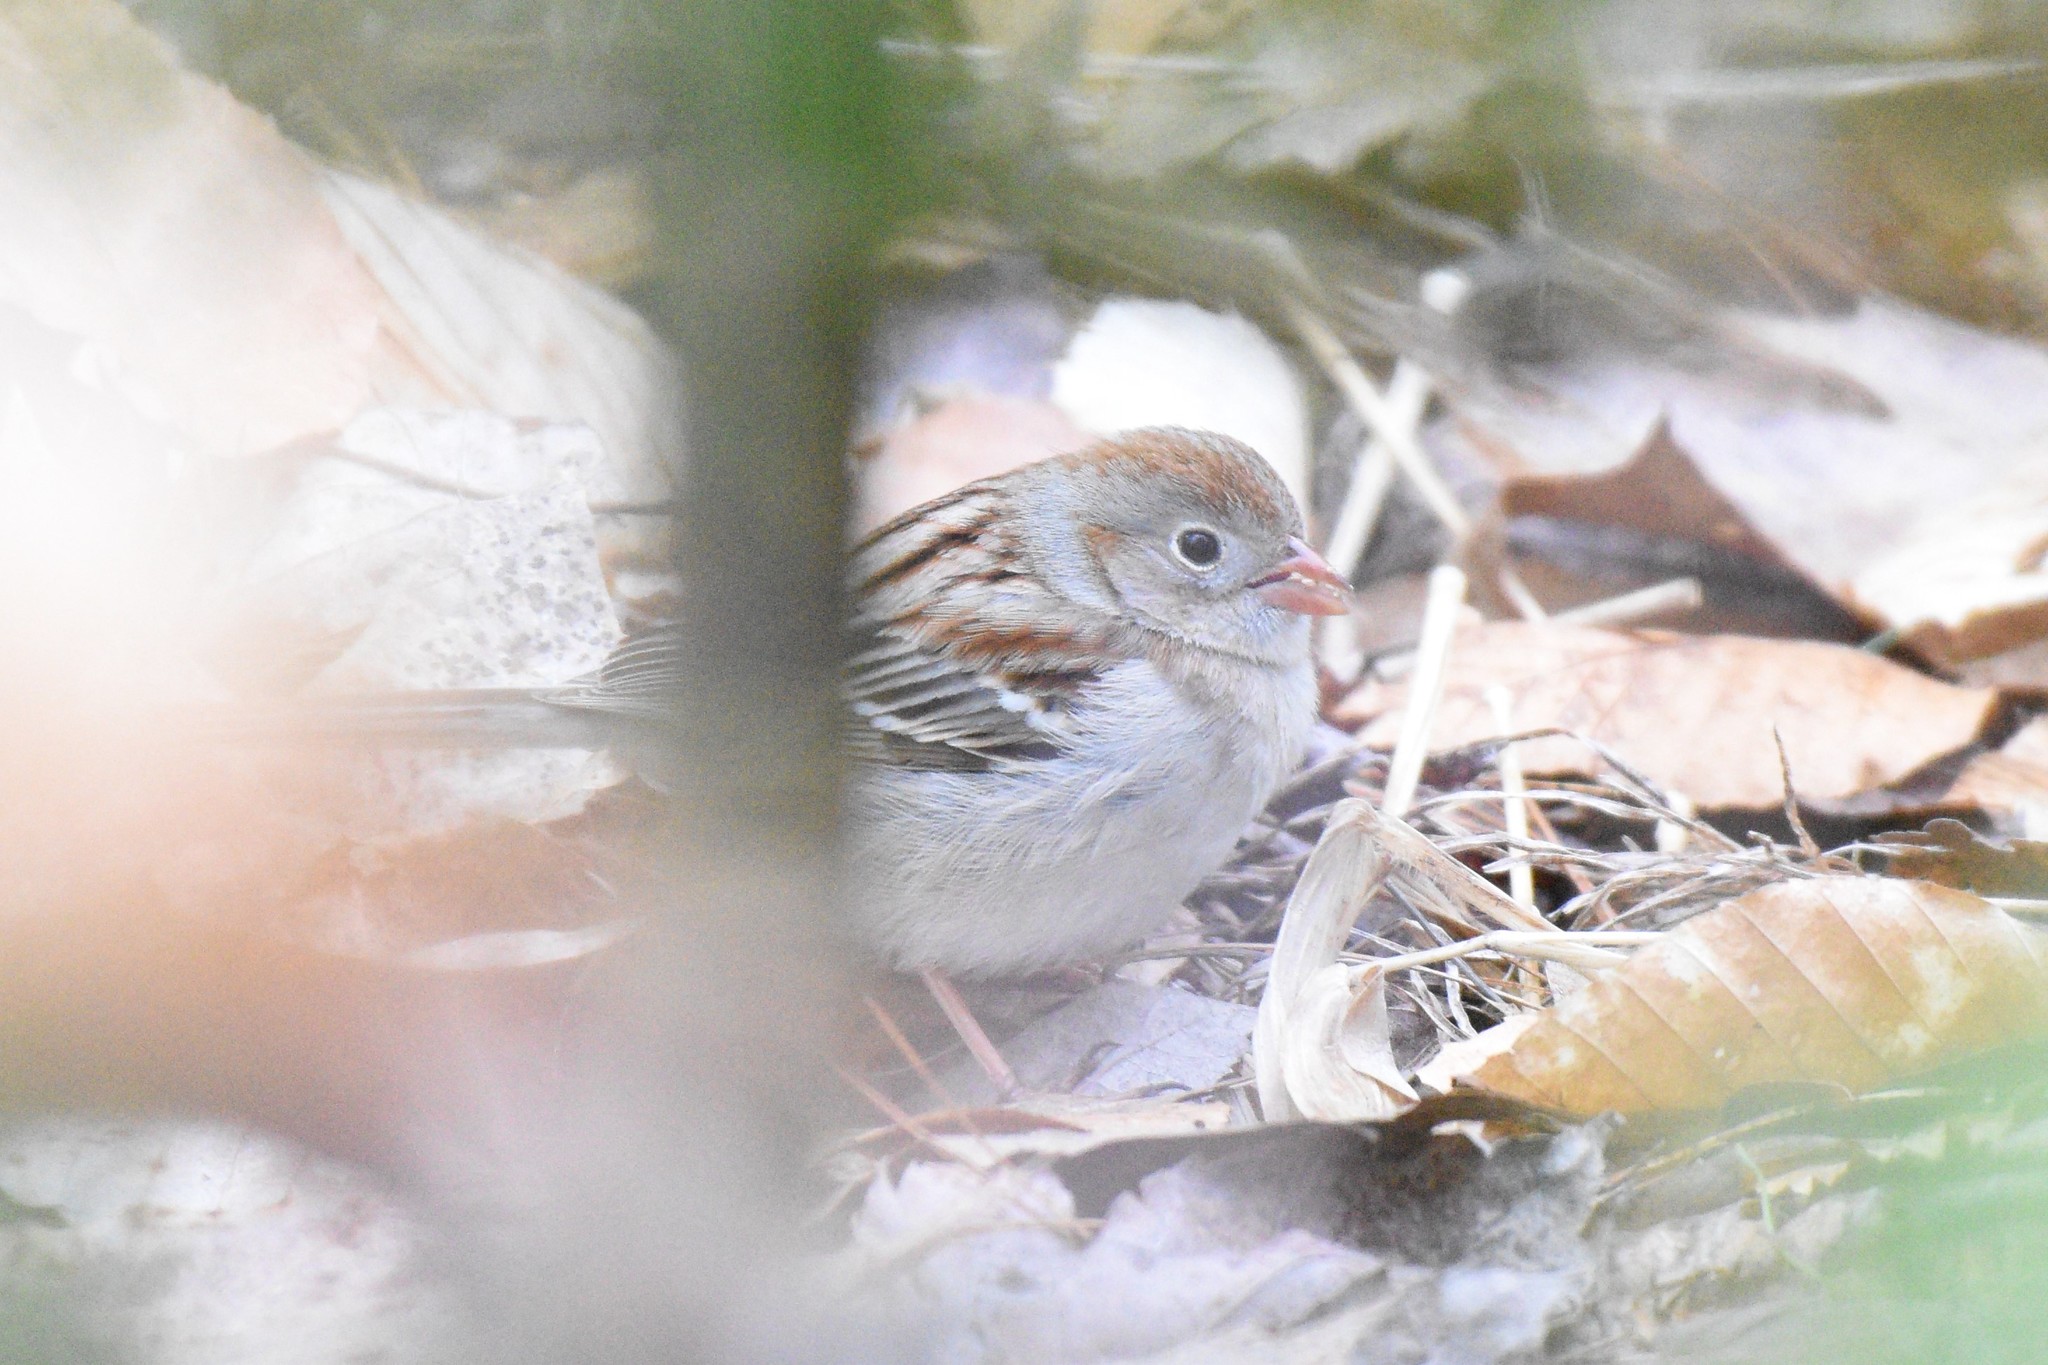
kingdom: Animalia
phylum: Chordata
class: Aves
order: Passeriformes
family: Passerellidae
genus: Spizella
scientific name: Spizella pusilla
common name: Field sparrow
